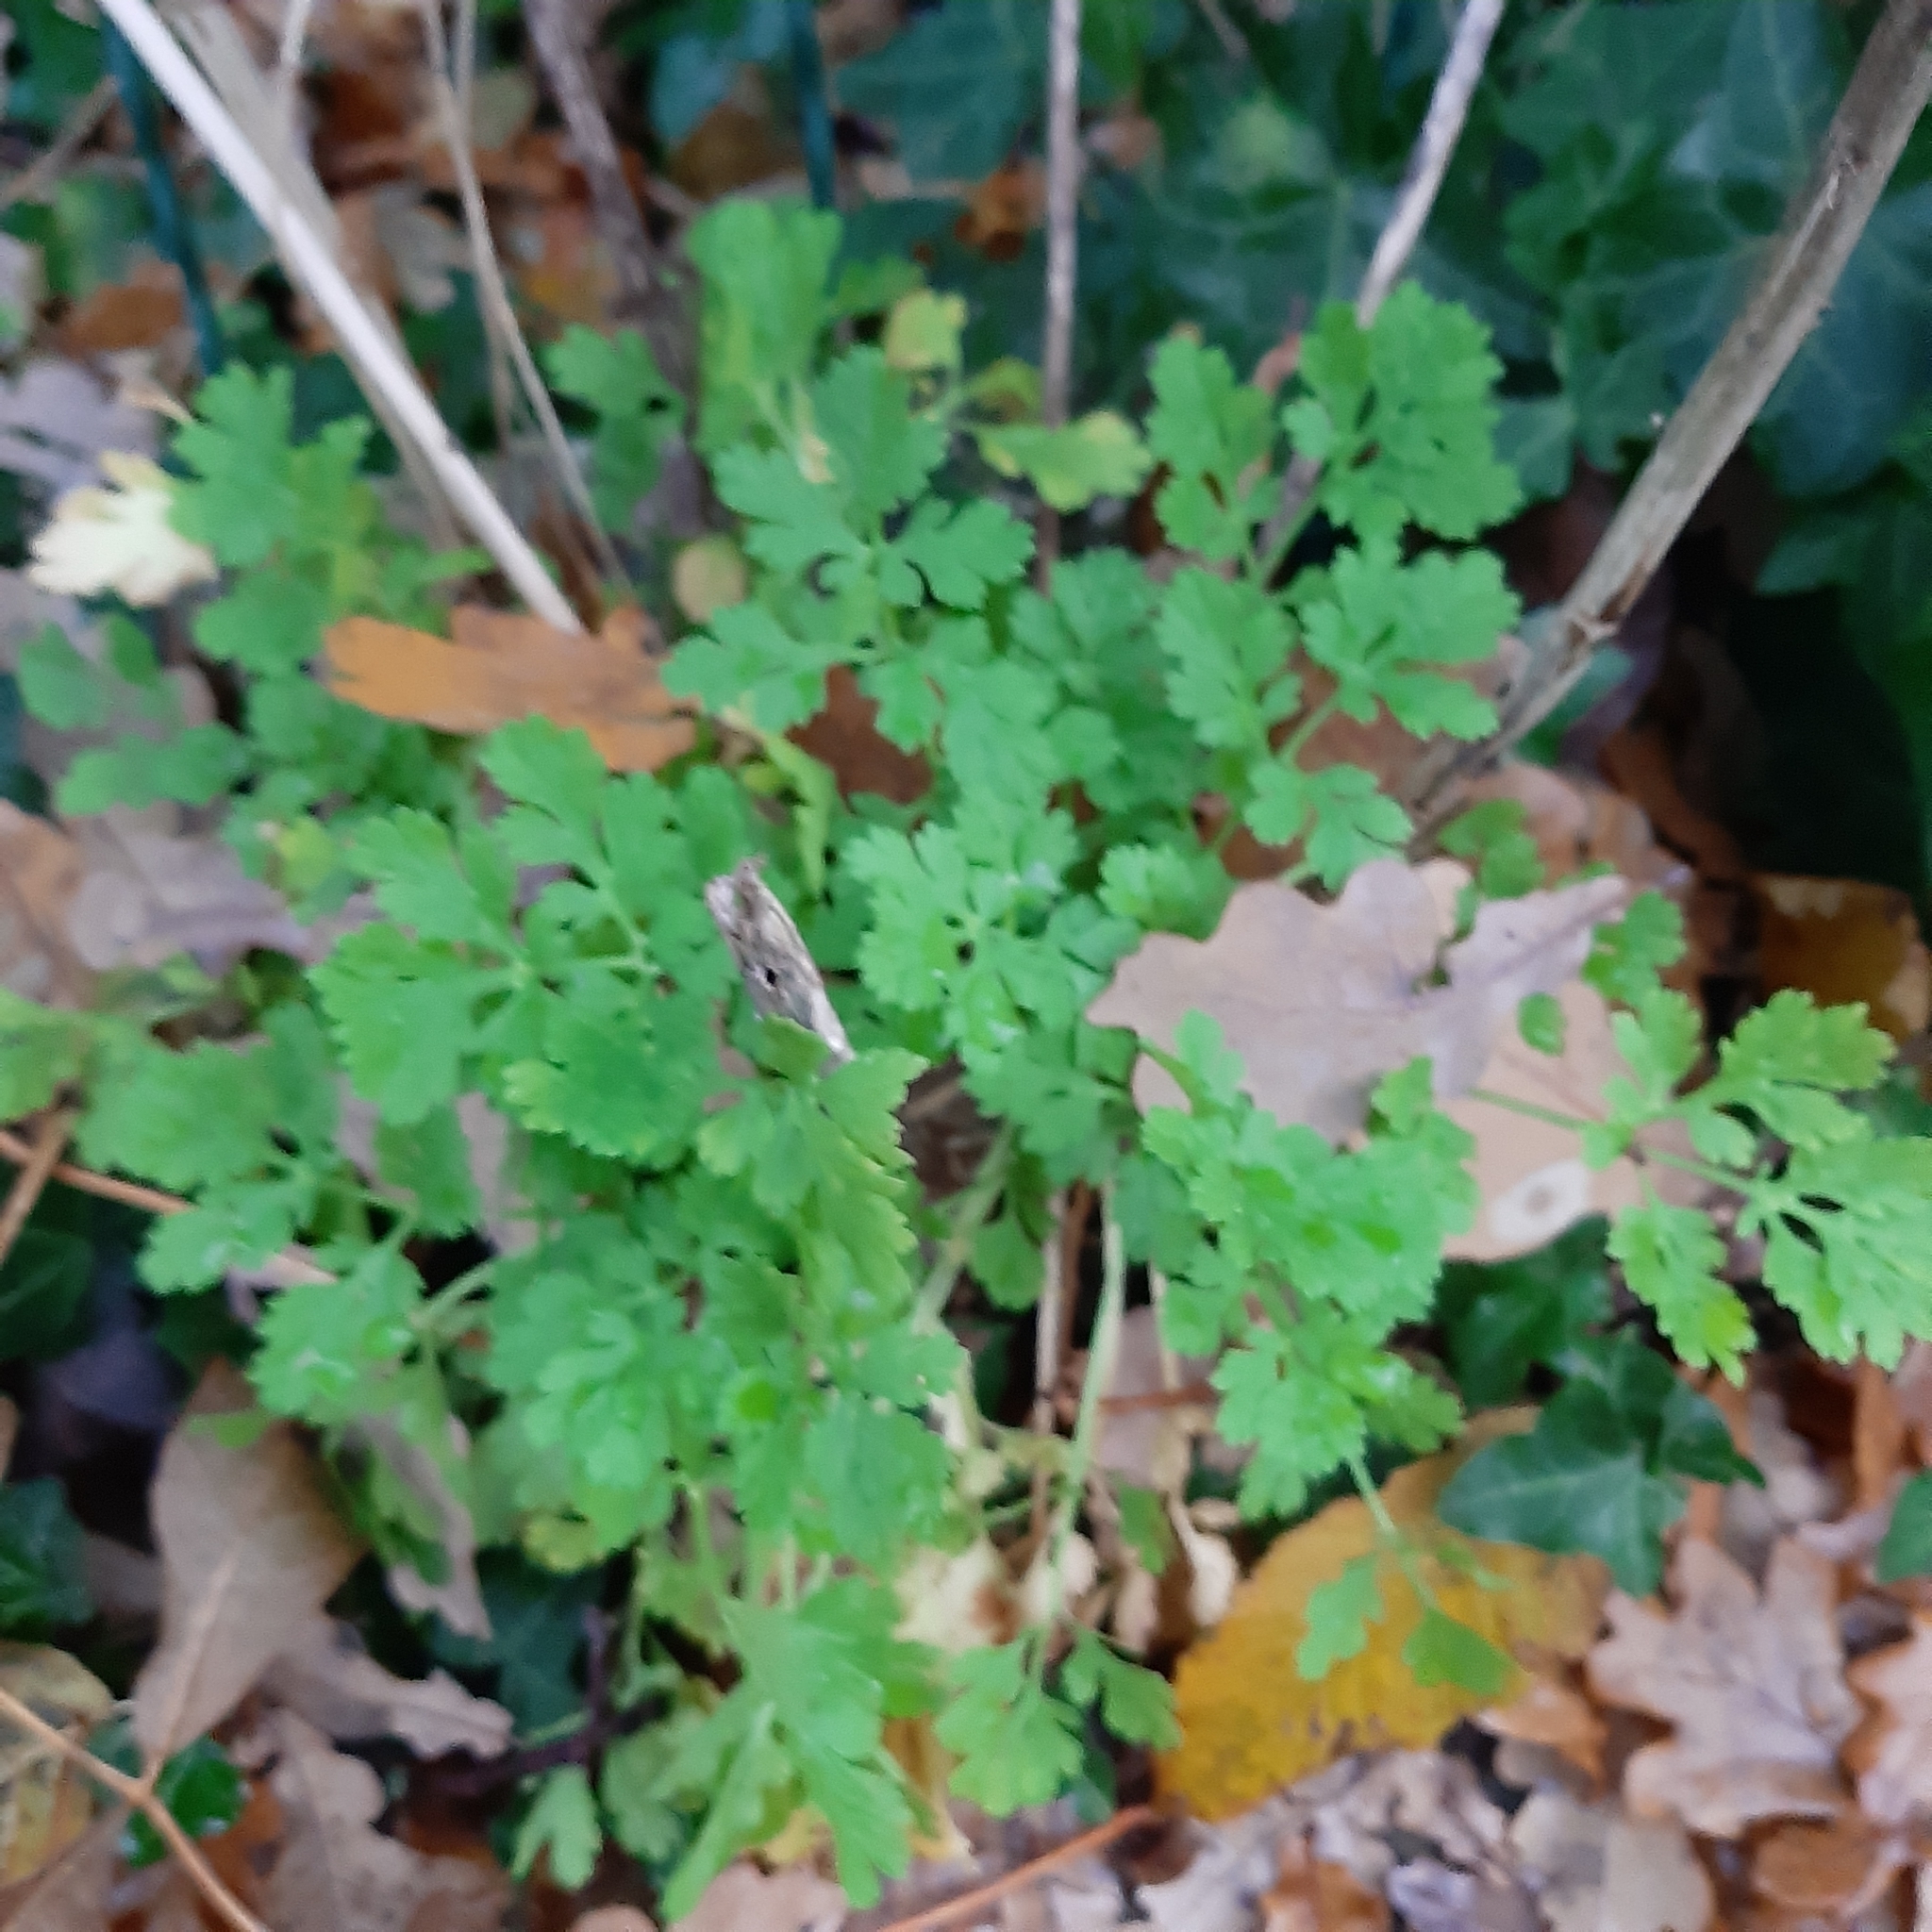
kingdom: Plantae
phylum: Tracheophyta
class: Magnoliopsida
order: Asterales
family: Asteraceae
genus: Tanacetum
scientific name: Tanacetum parthenium
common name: Feverfew
